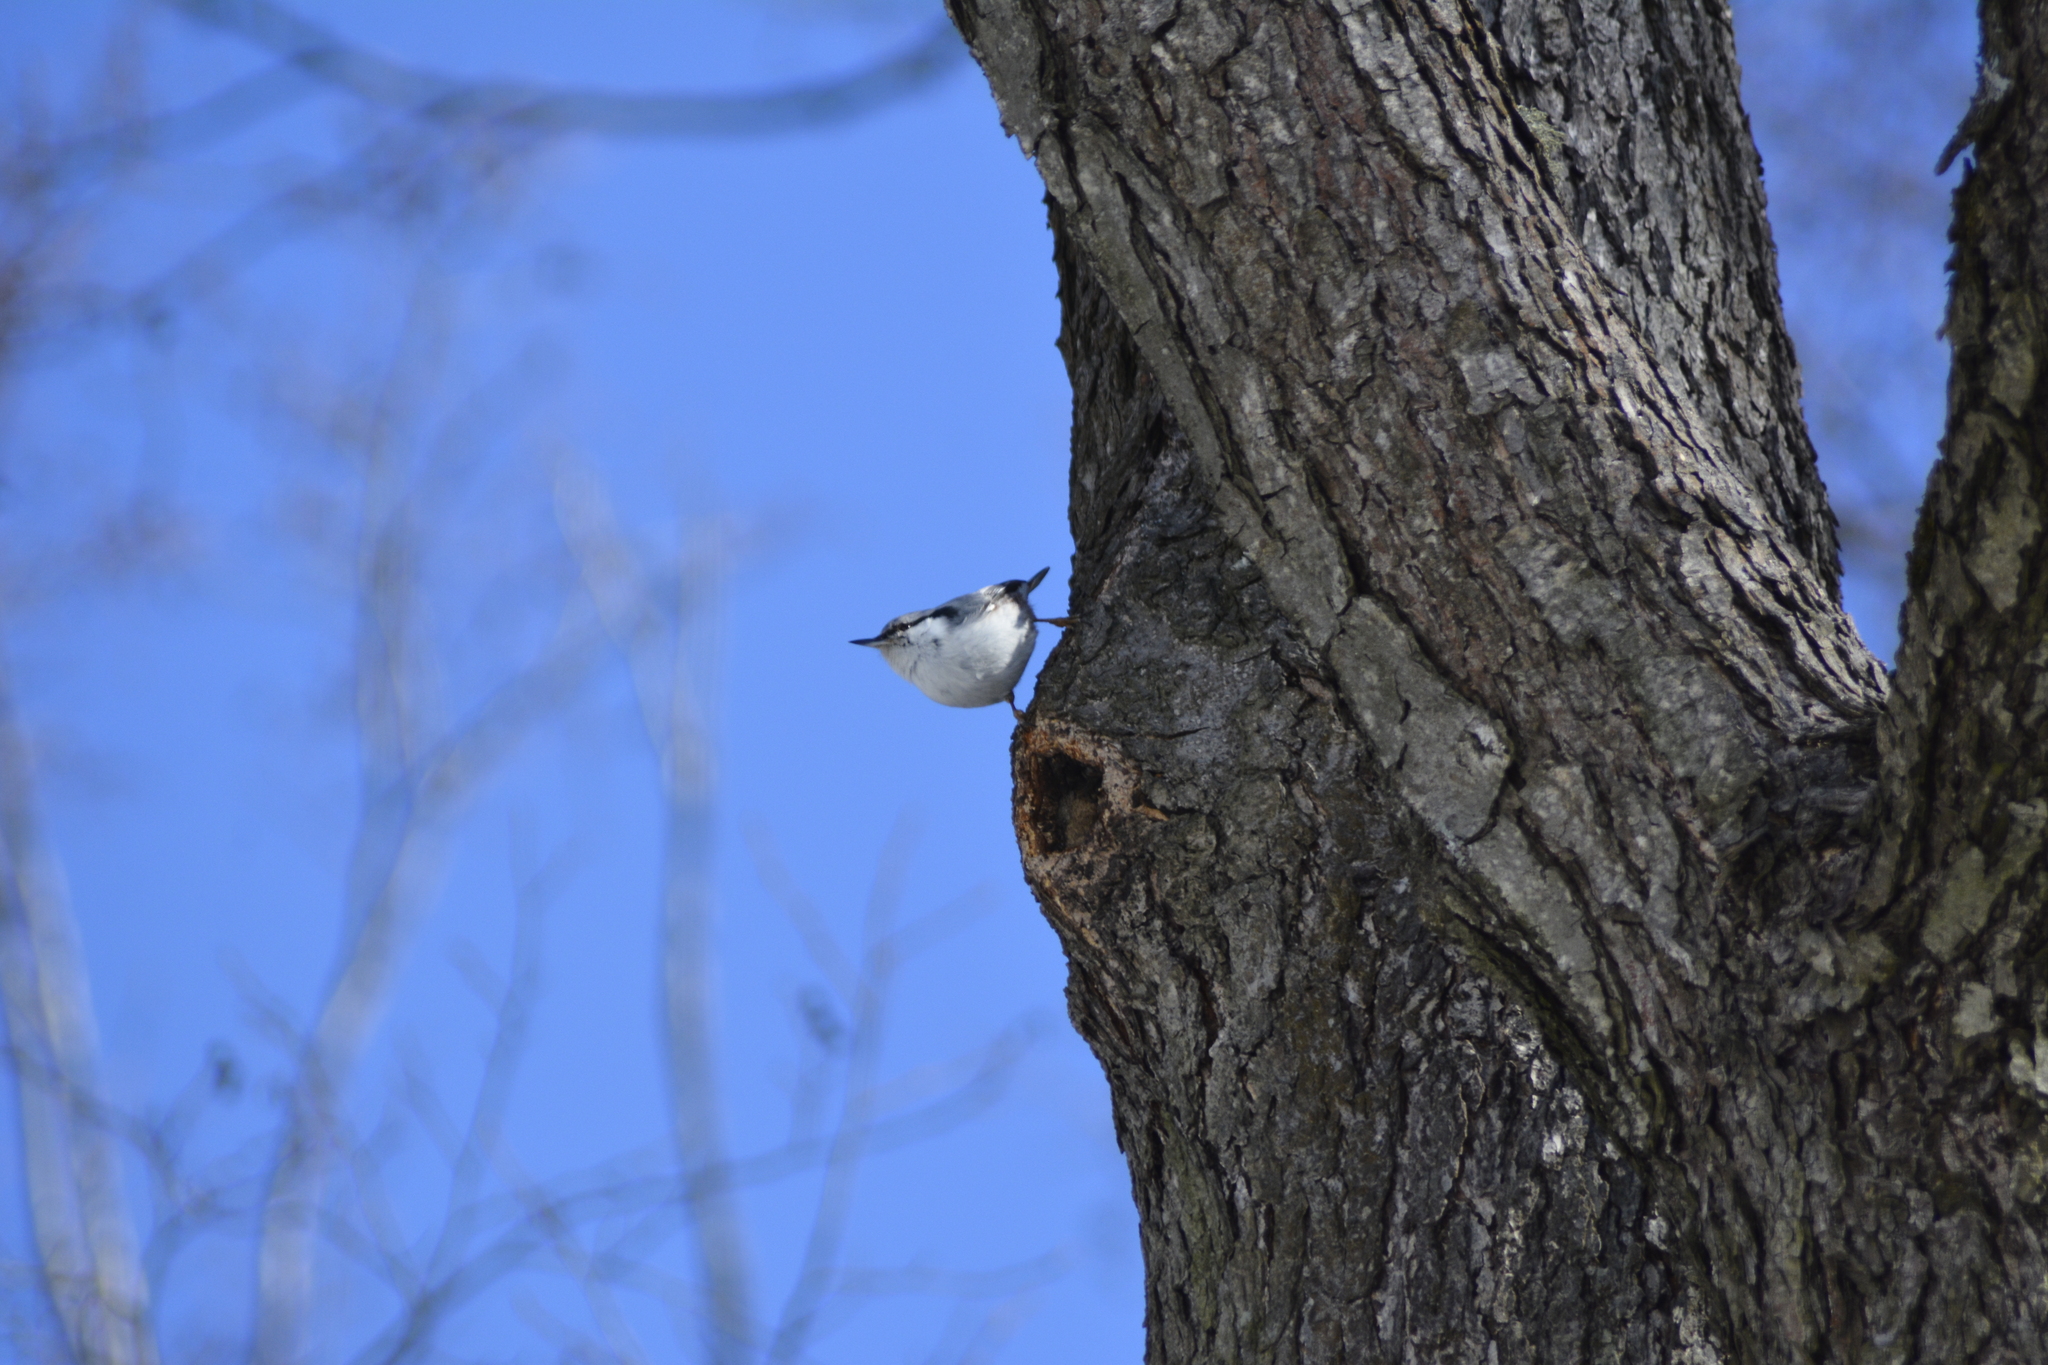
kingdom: Animalia
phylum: Chordata
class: Aves
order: Passeriformes
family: Sittidae
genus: Sitta
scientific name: Sitta europaea
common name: Eurasian nuthatch
